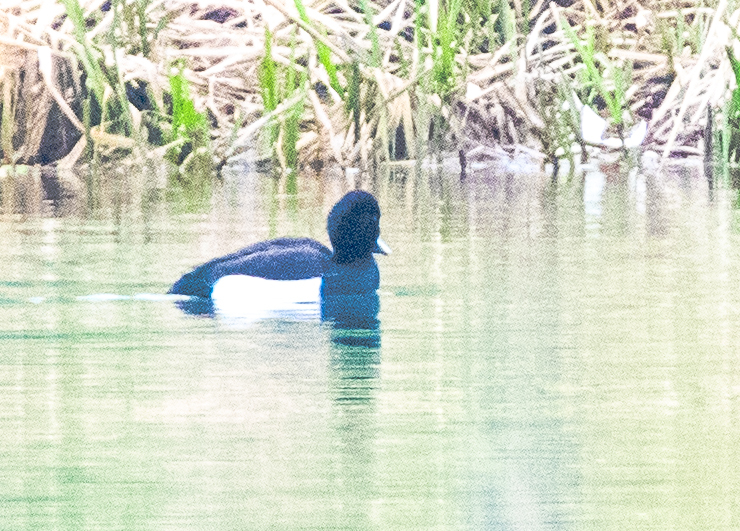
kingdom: Animalia
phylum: Chordata
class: Aves
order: Anseriformes
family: Anatidae
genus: Aythya
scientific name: Aythya fuligula
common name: Tufted duck
